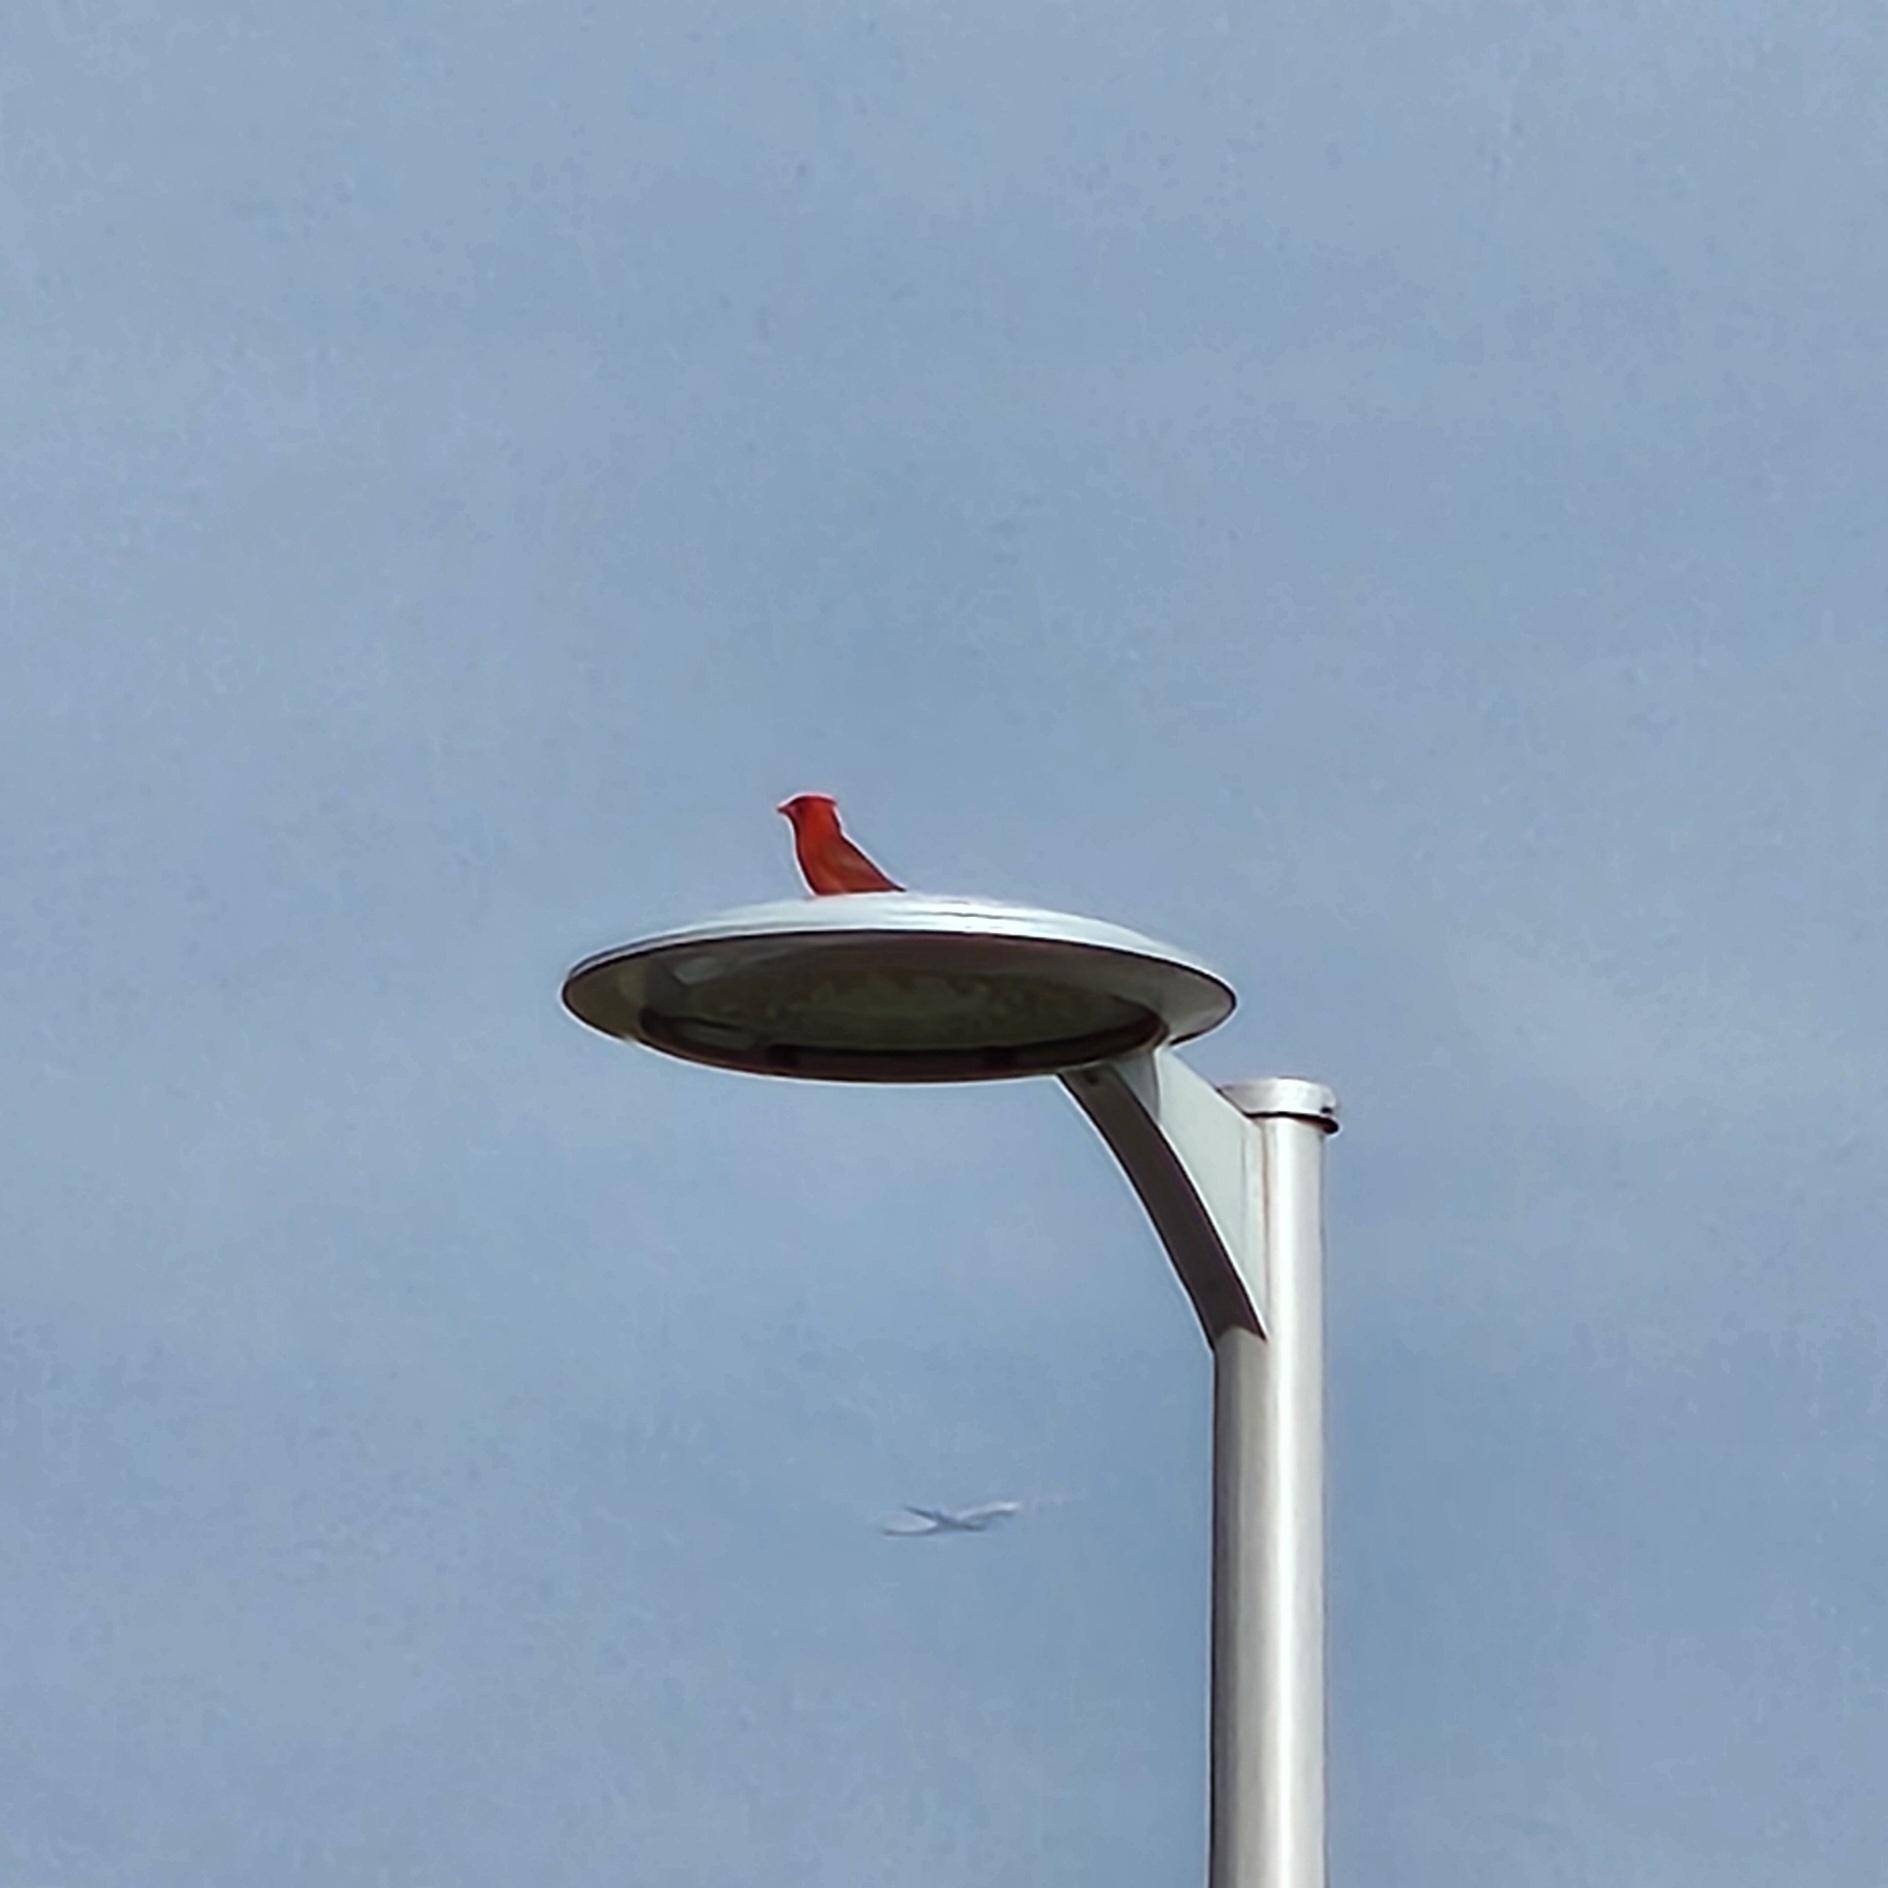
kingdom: Animalia
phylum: Chordata
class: Aves
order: Passeriformes
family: Cardinalidae
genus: Cardinalis
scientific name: Cardinalis cardinalis
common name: Northern cardinal
